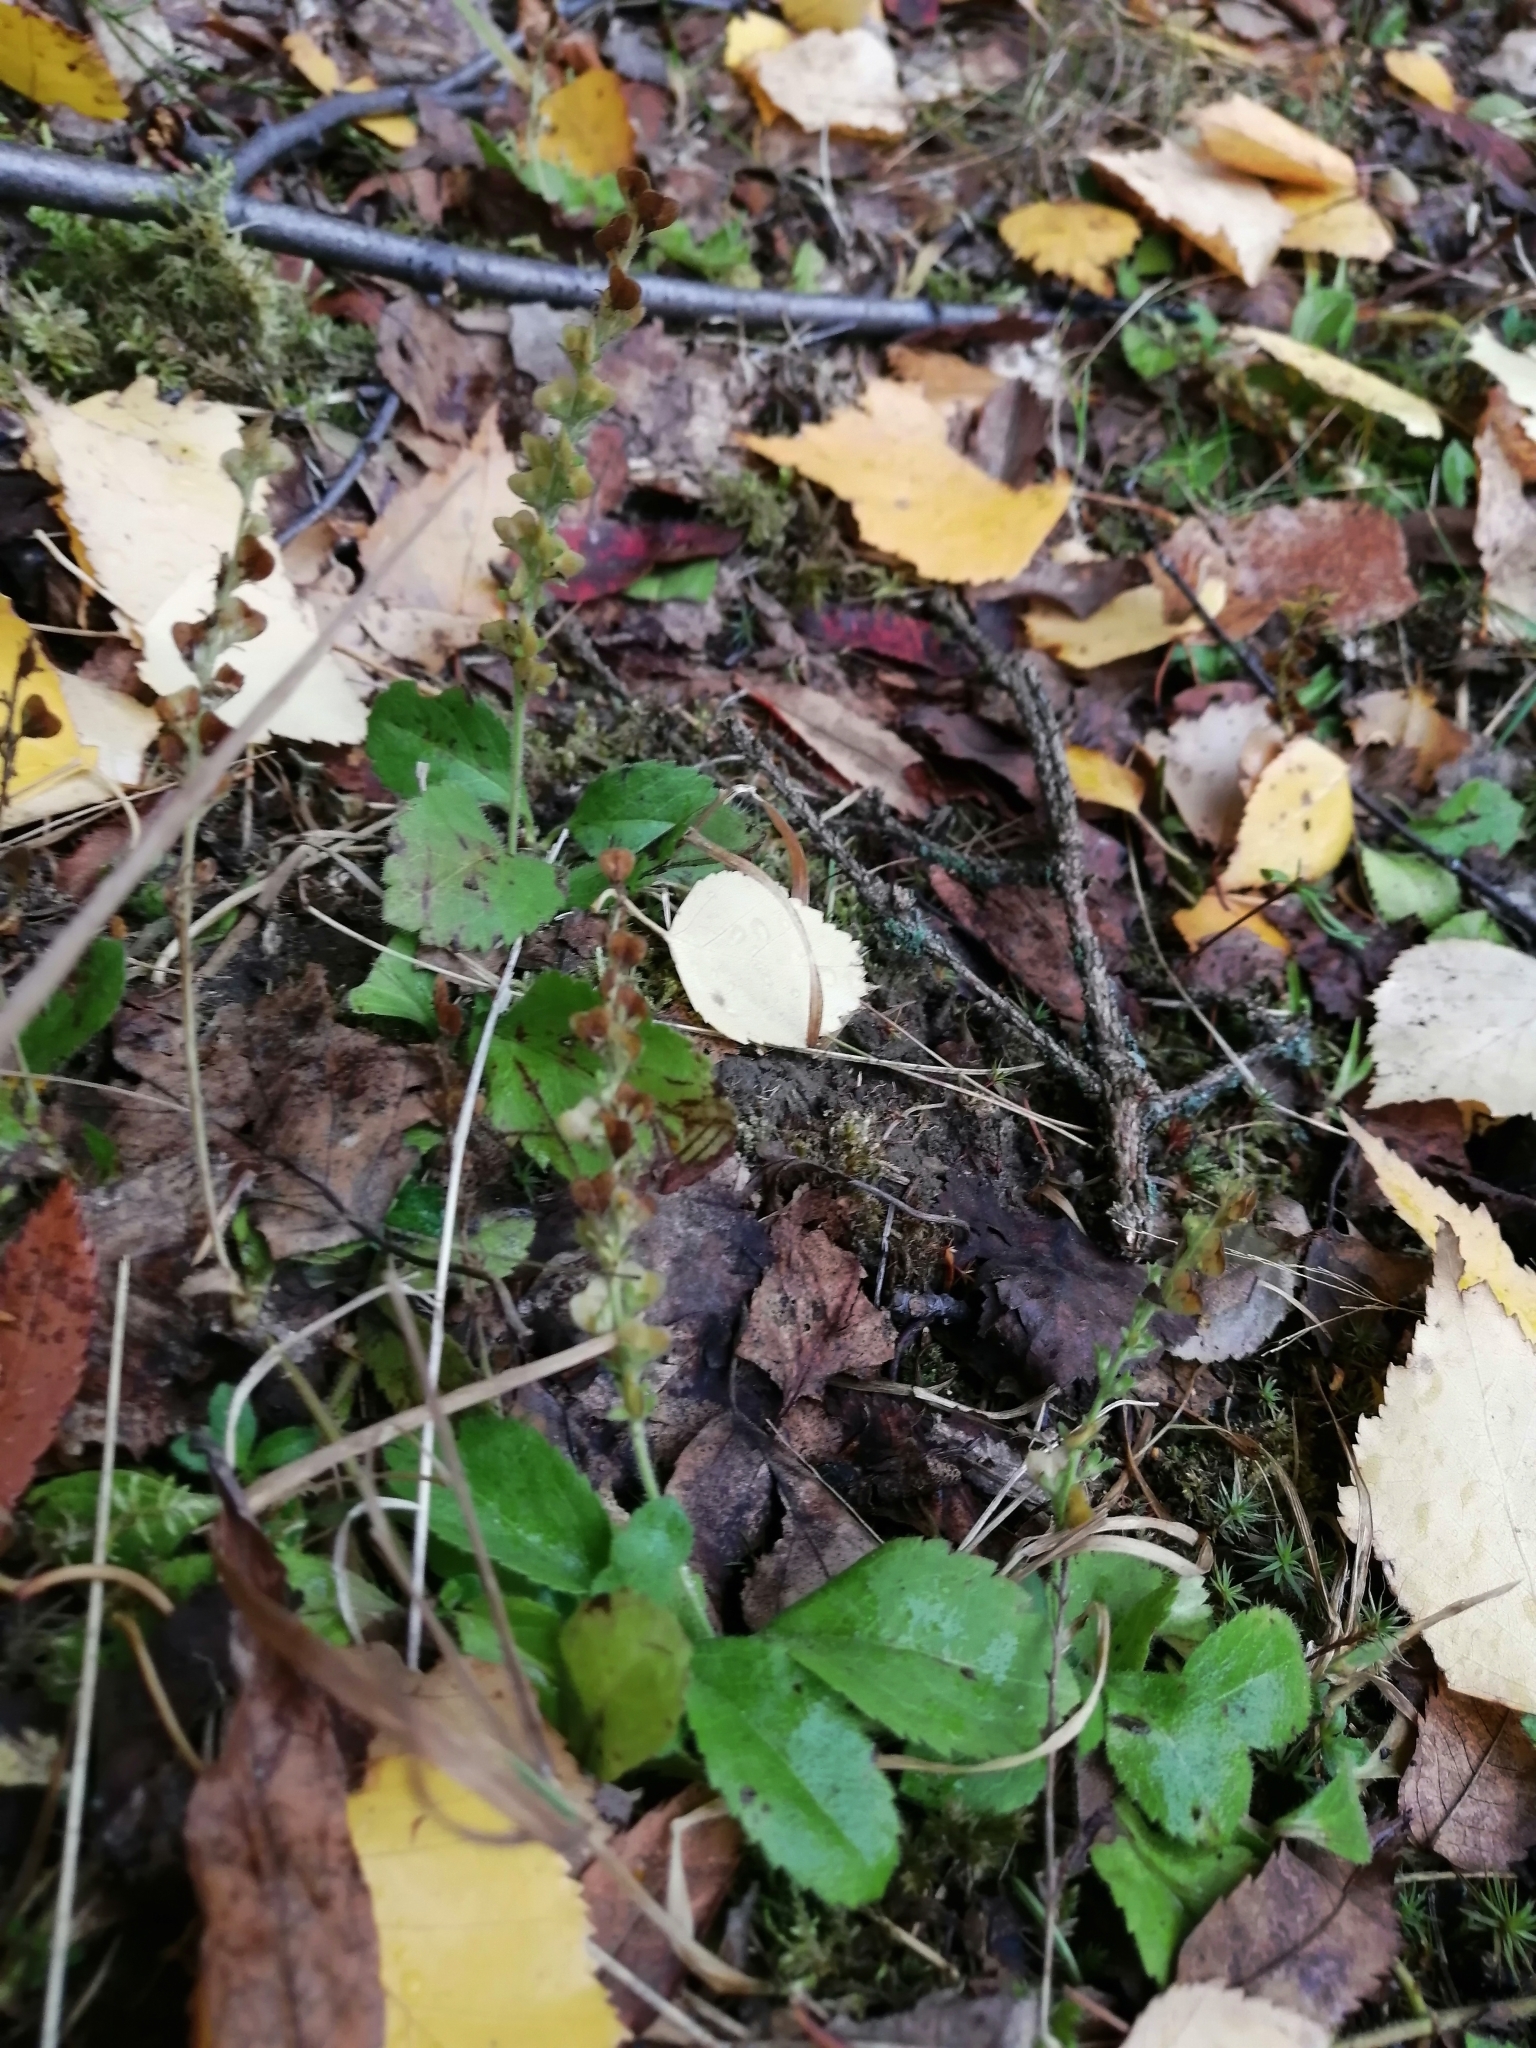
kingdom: Plantae
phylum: Tracheophyta
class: Magnoliopsida
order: Lamiales
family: Plantaginaceae
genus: Veronica
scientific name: Veronica officinalis
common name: Common speedwell
